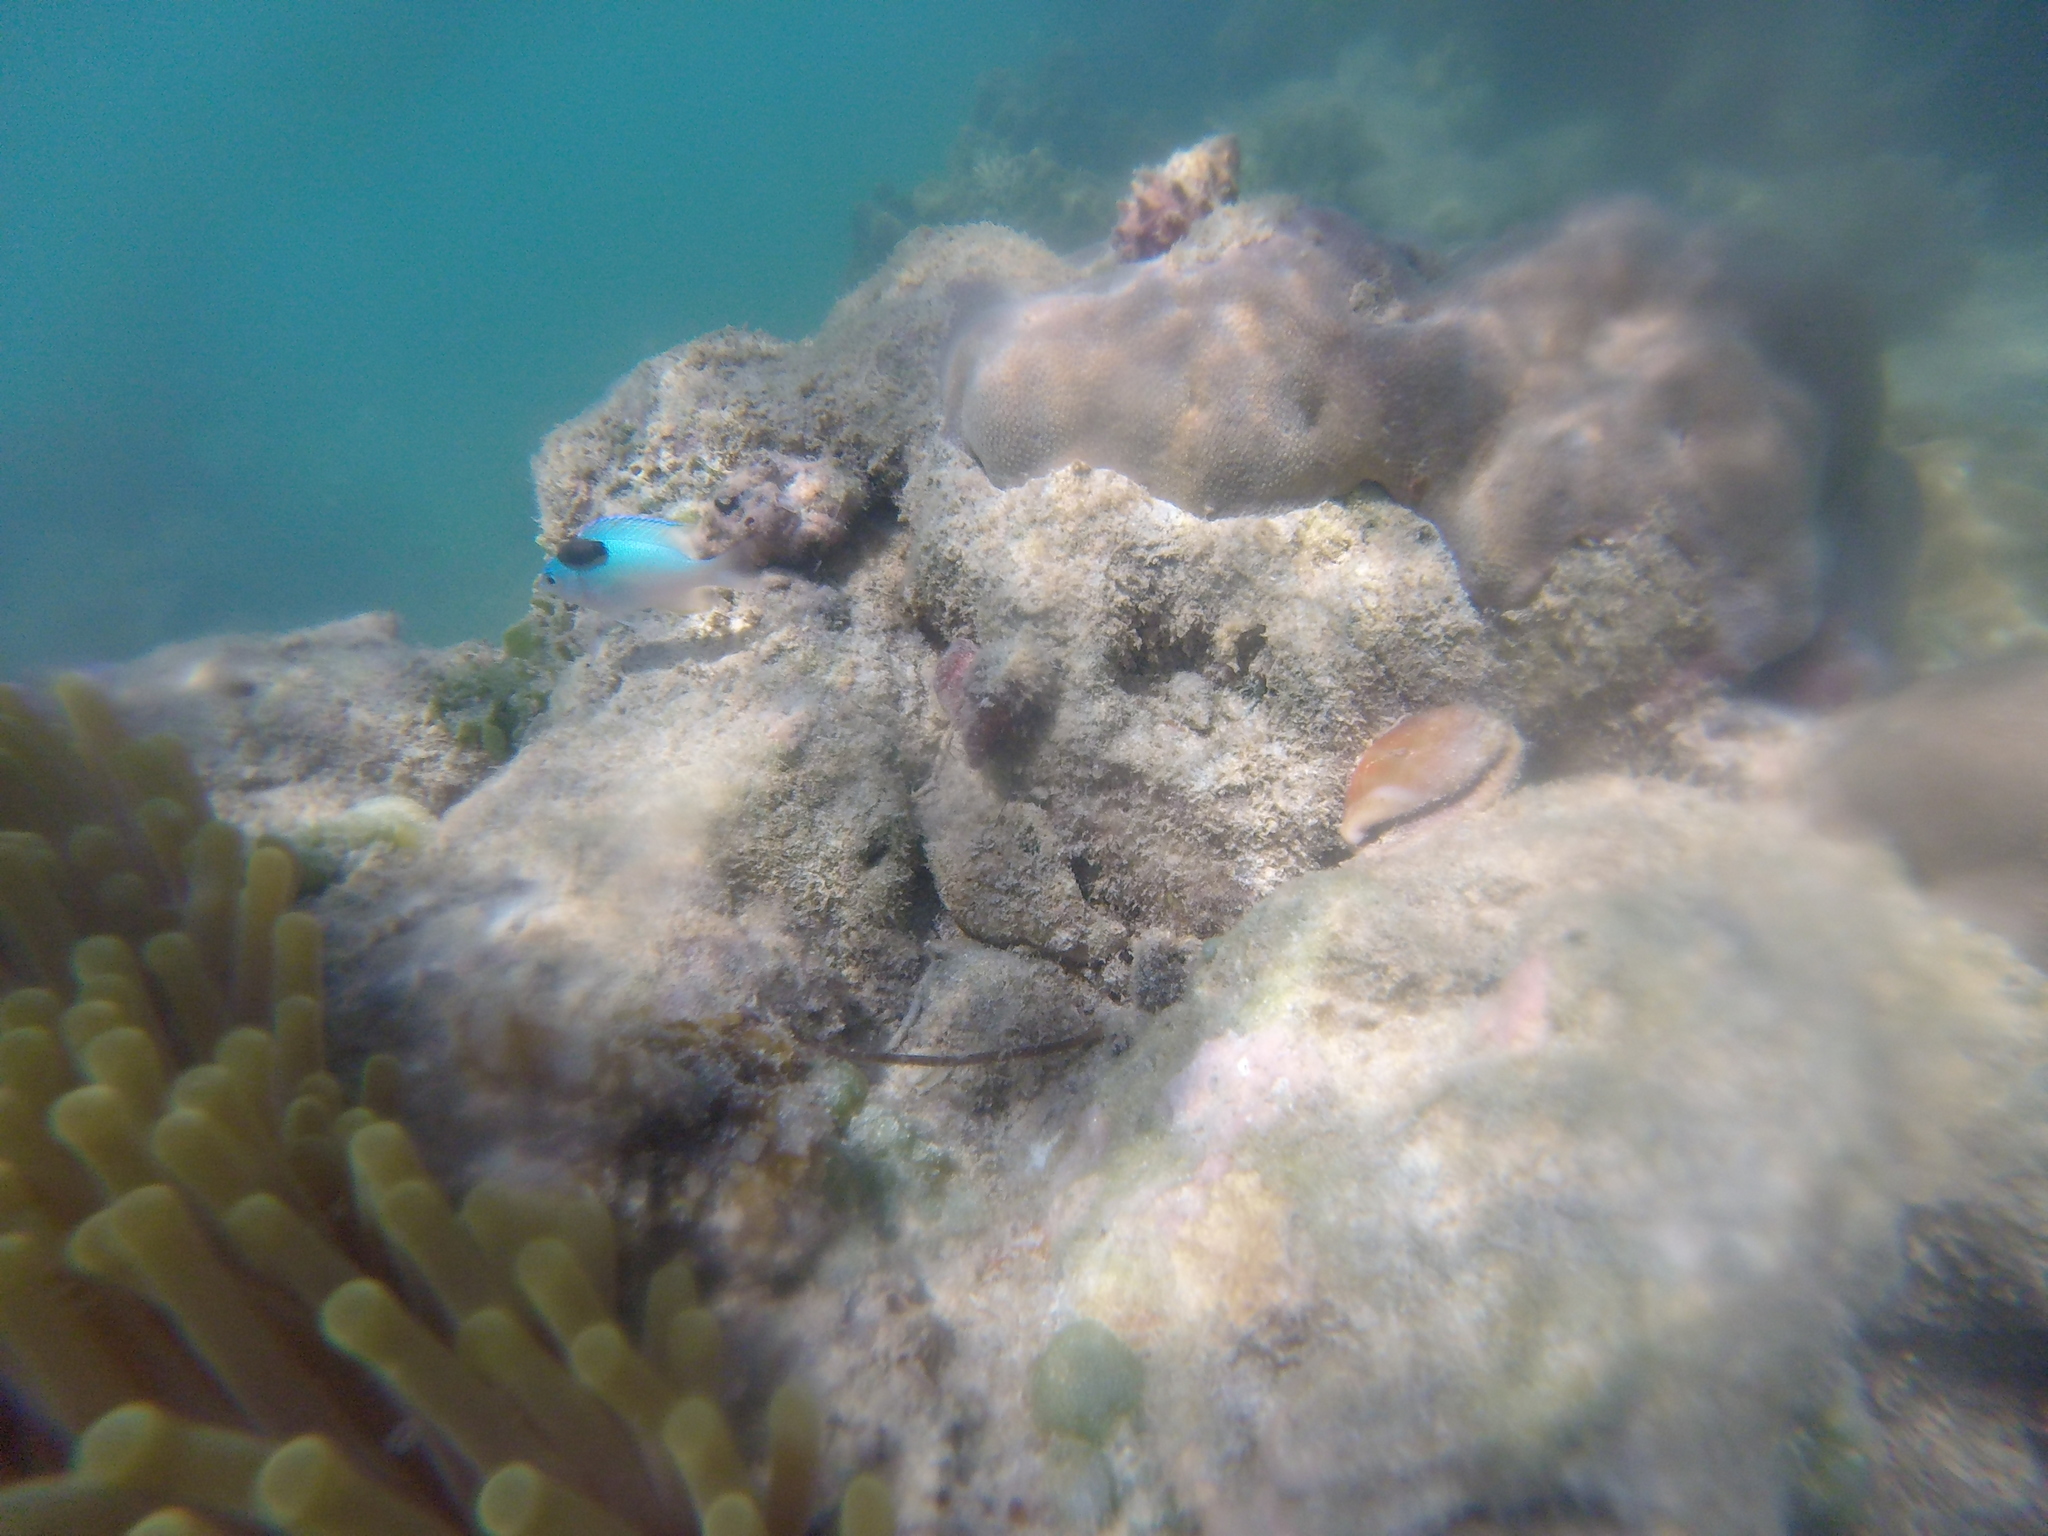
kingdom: Animalia
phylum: Chordata
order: Perciformes
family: Pomacentridae
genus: Chromis
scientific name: Chromis viridis
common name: Blue-green chromis
